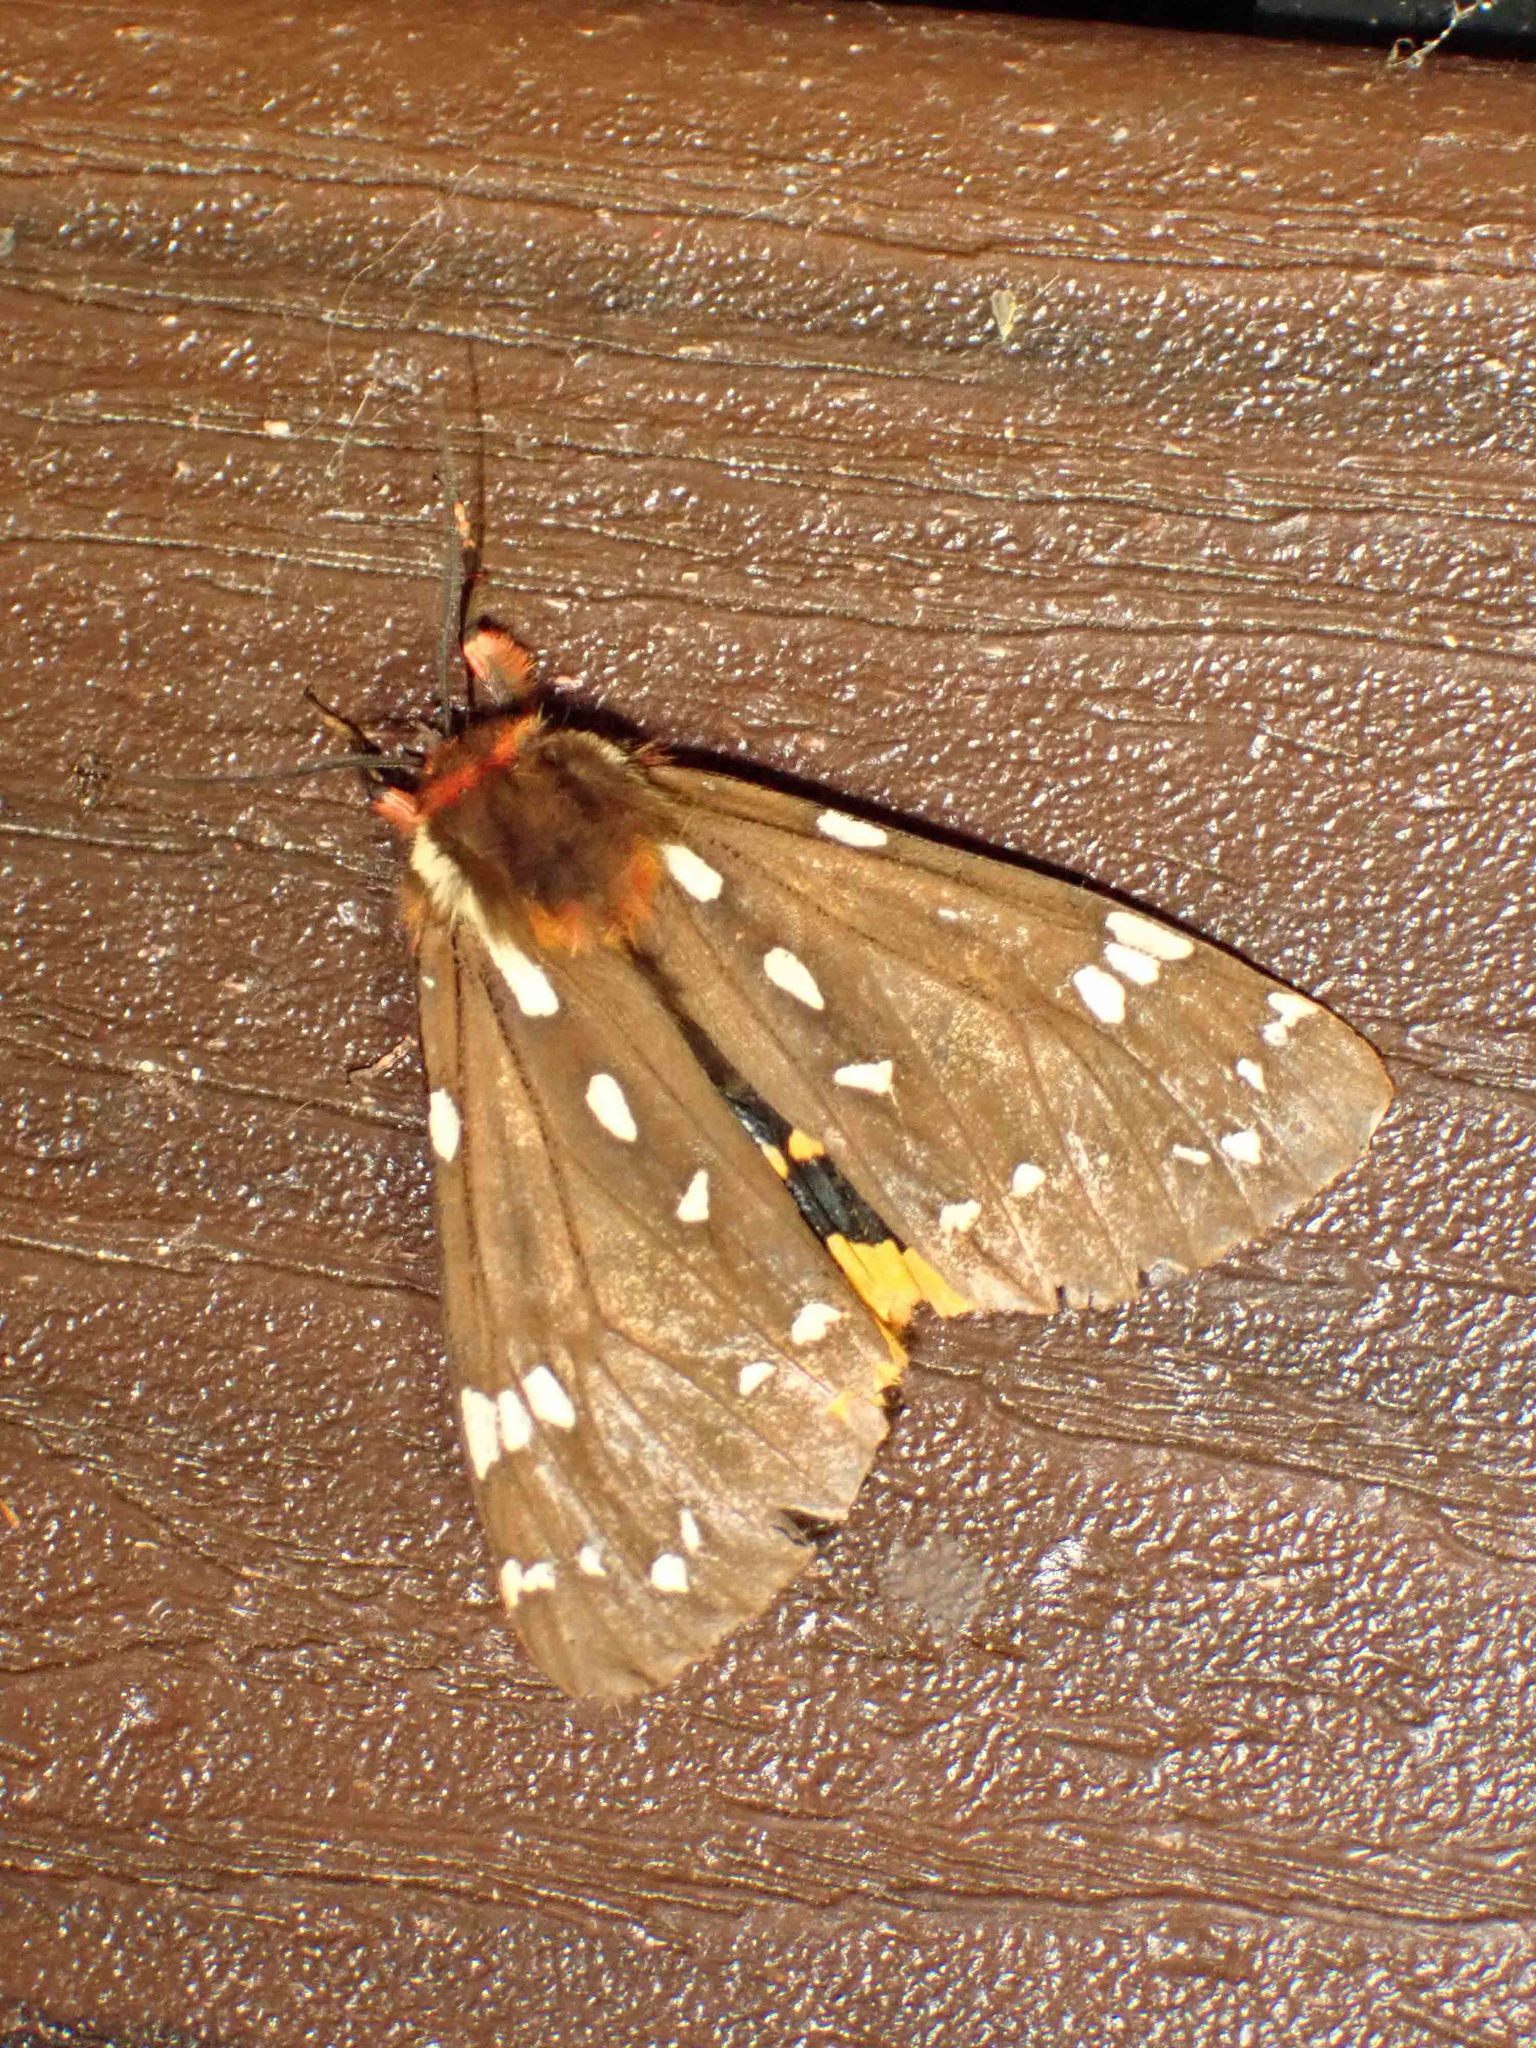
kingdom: Animalia
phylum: Arthropoda
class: Insecta
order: Lepidoptera
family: Erebidae
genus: Arctia
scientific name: Arctia parthenos
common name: St. lawrence tiger moth
